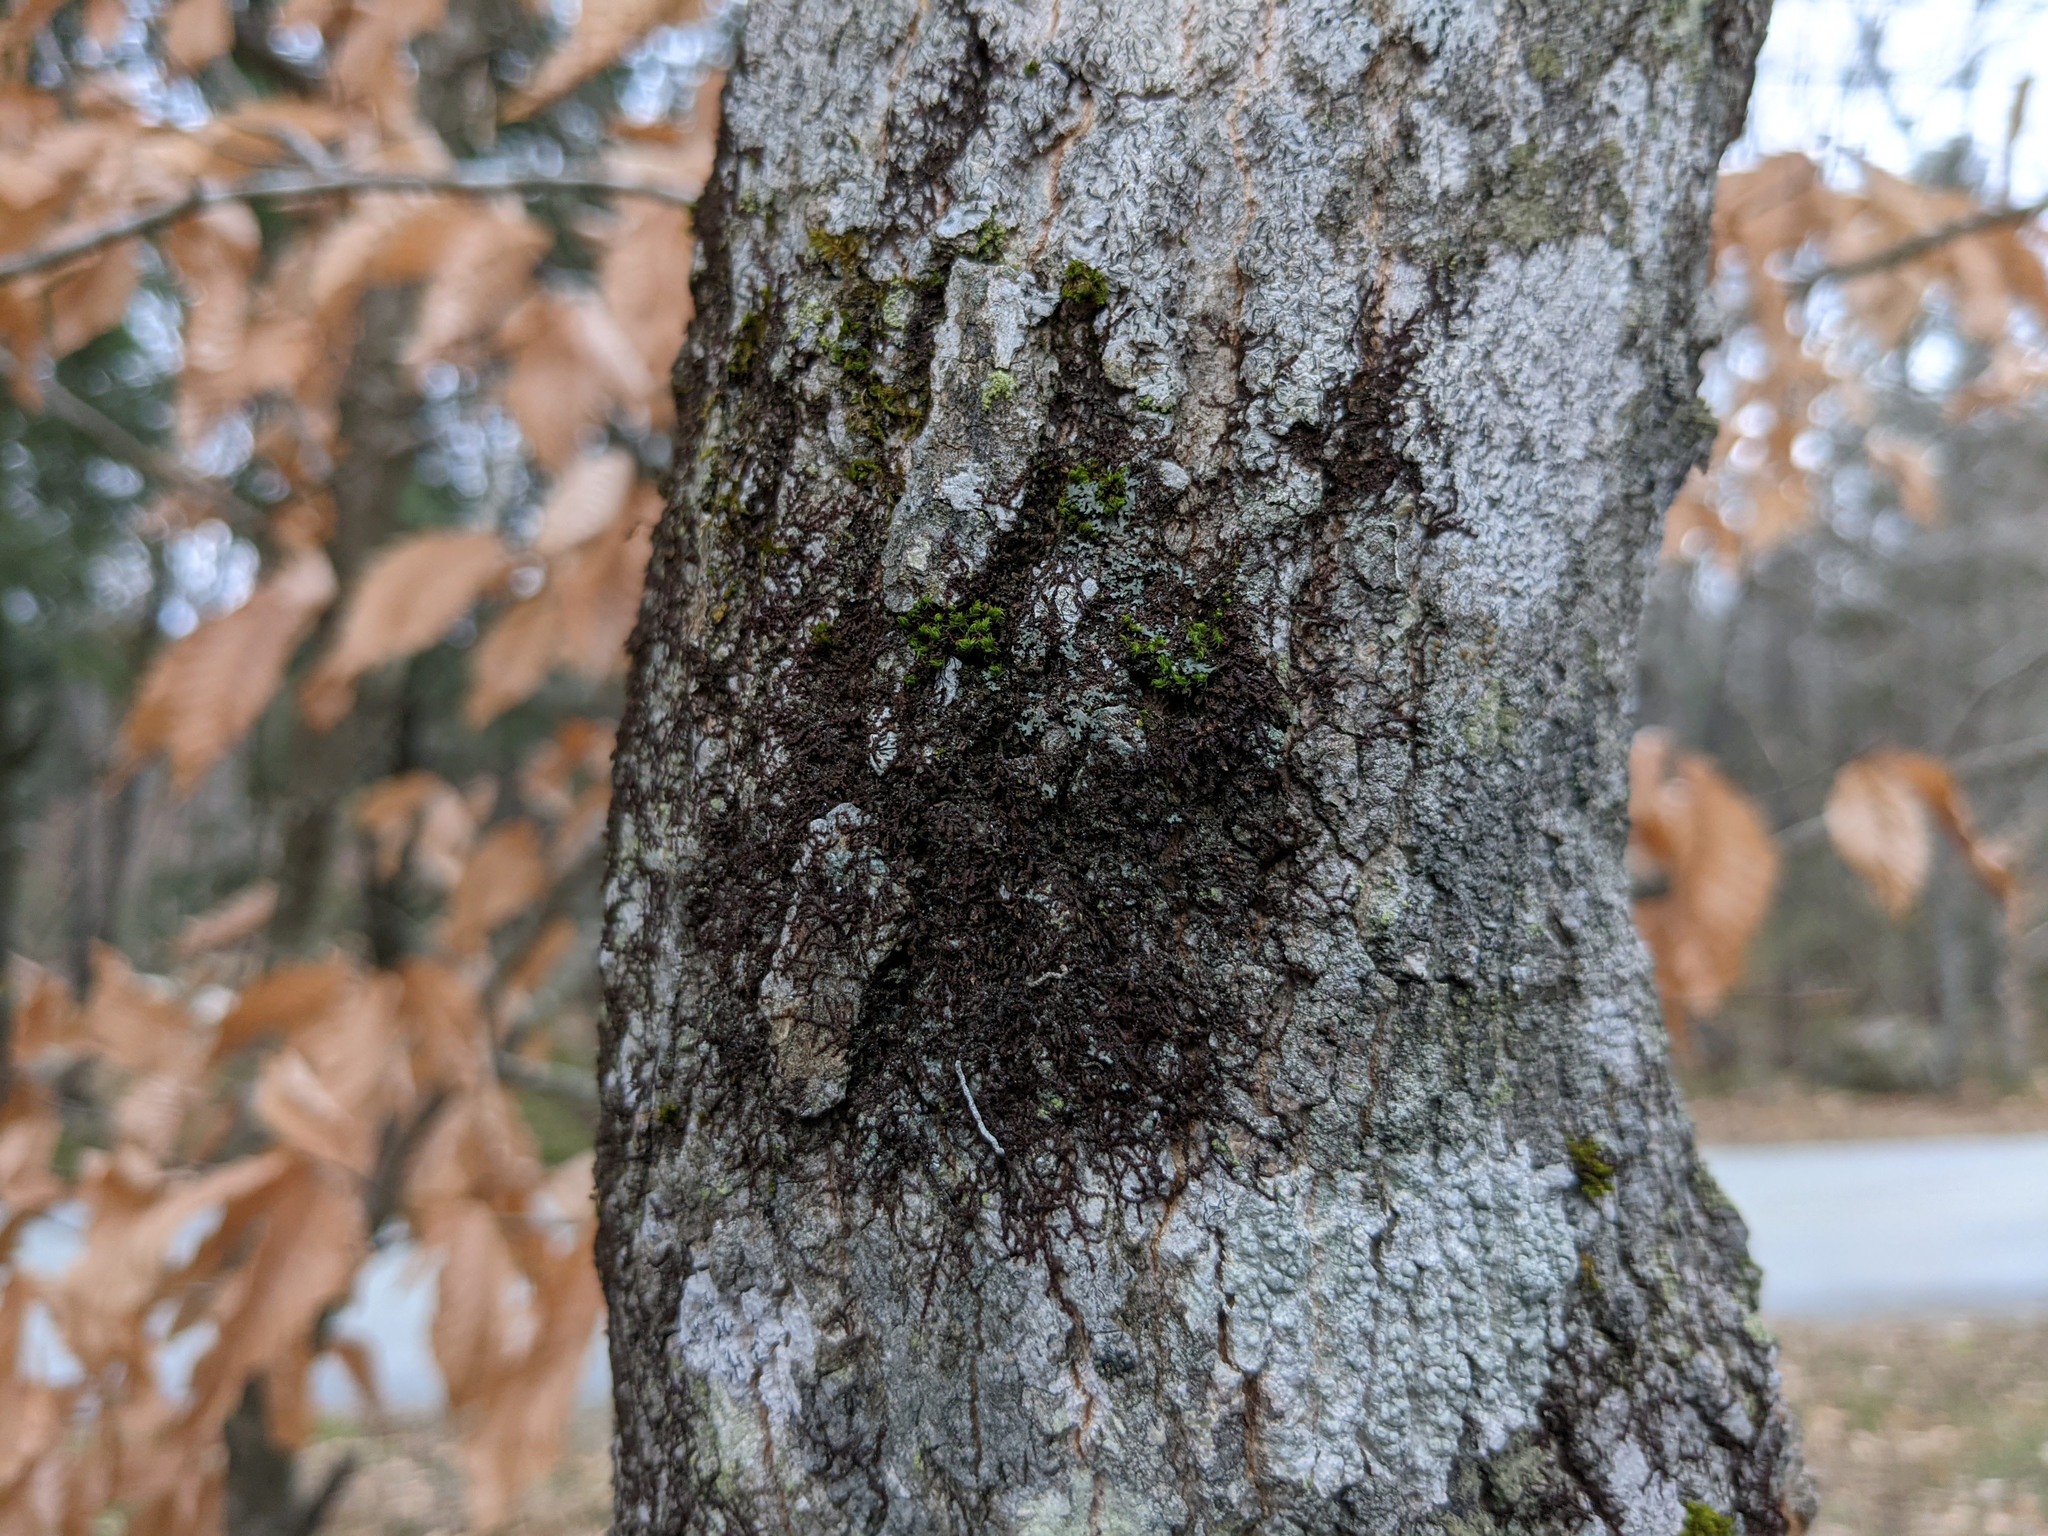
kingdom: Plantae
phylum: Bryophyta
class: Bryopsida
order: Orthotrichales
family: Orthotrichaceae
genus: Ulota
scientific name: Ulota crispa
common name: Crisped pincushion moss
